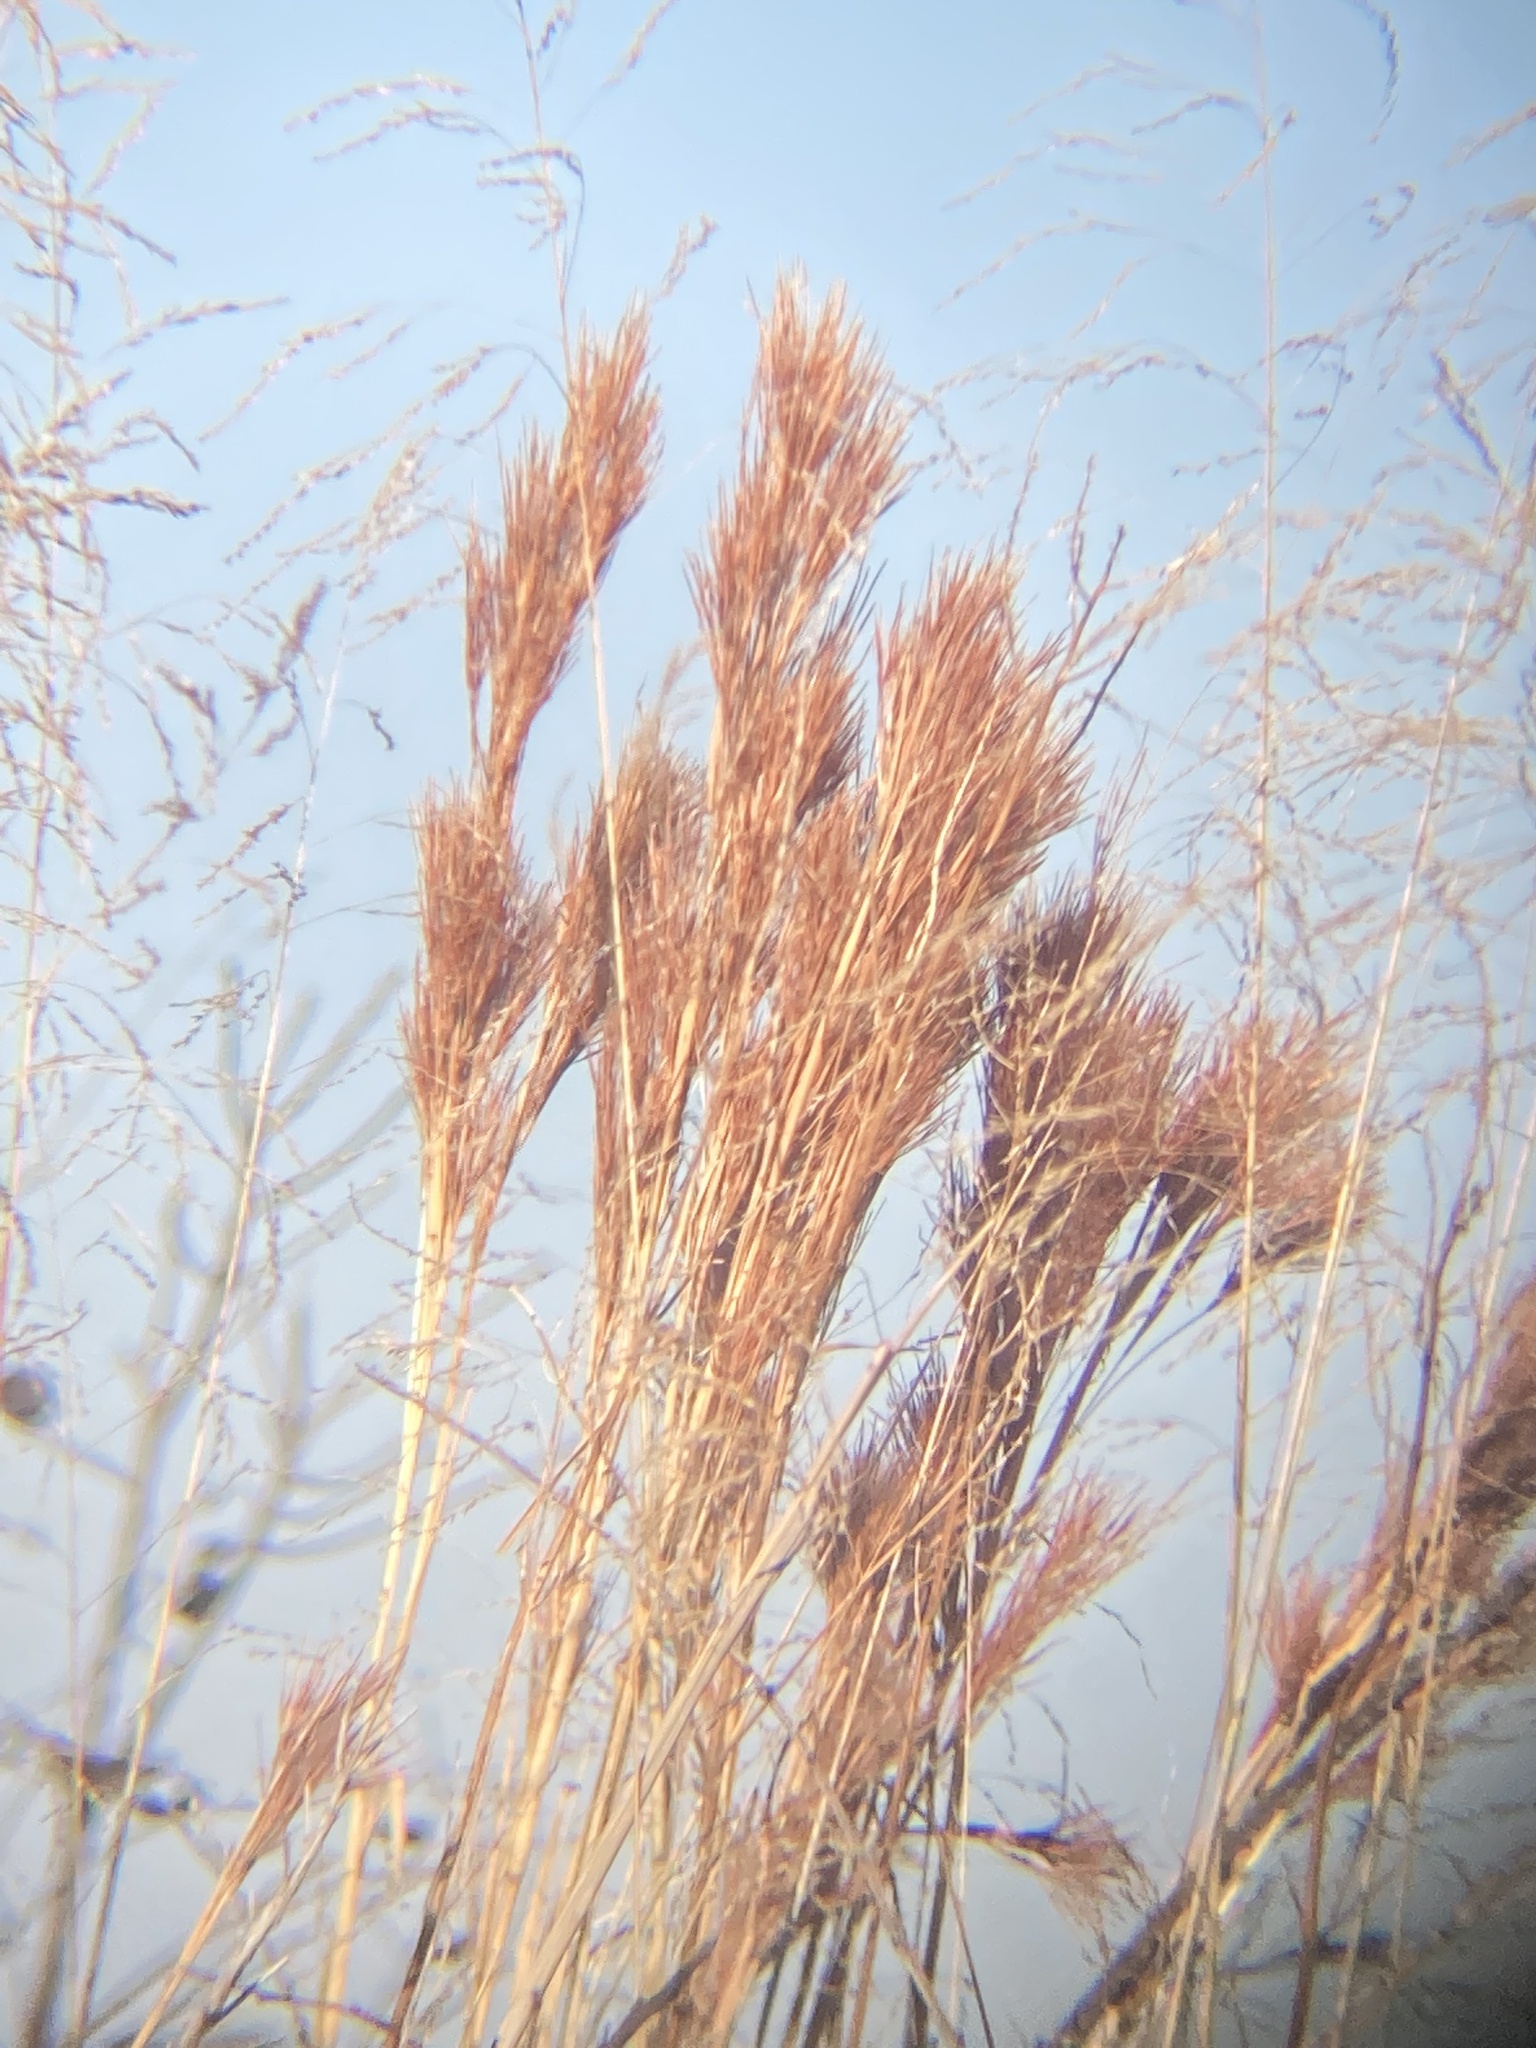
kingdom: Plantae
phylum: Tracheophyta
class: Liliopsida
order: Poales
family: Poaceae
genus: Andropogon
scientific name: Andropogon tenuispatheus
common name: Bushy bluestem
